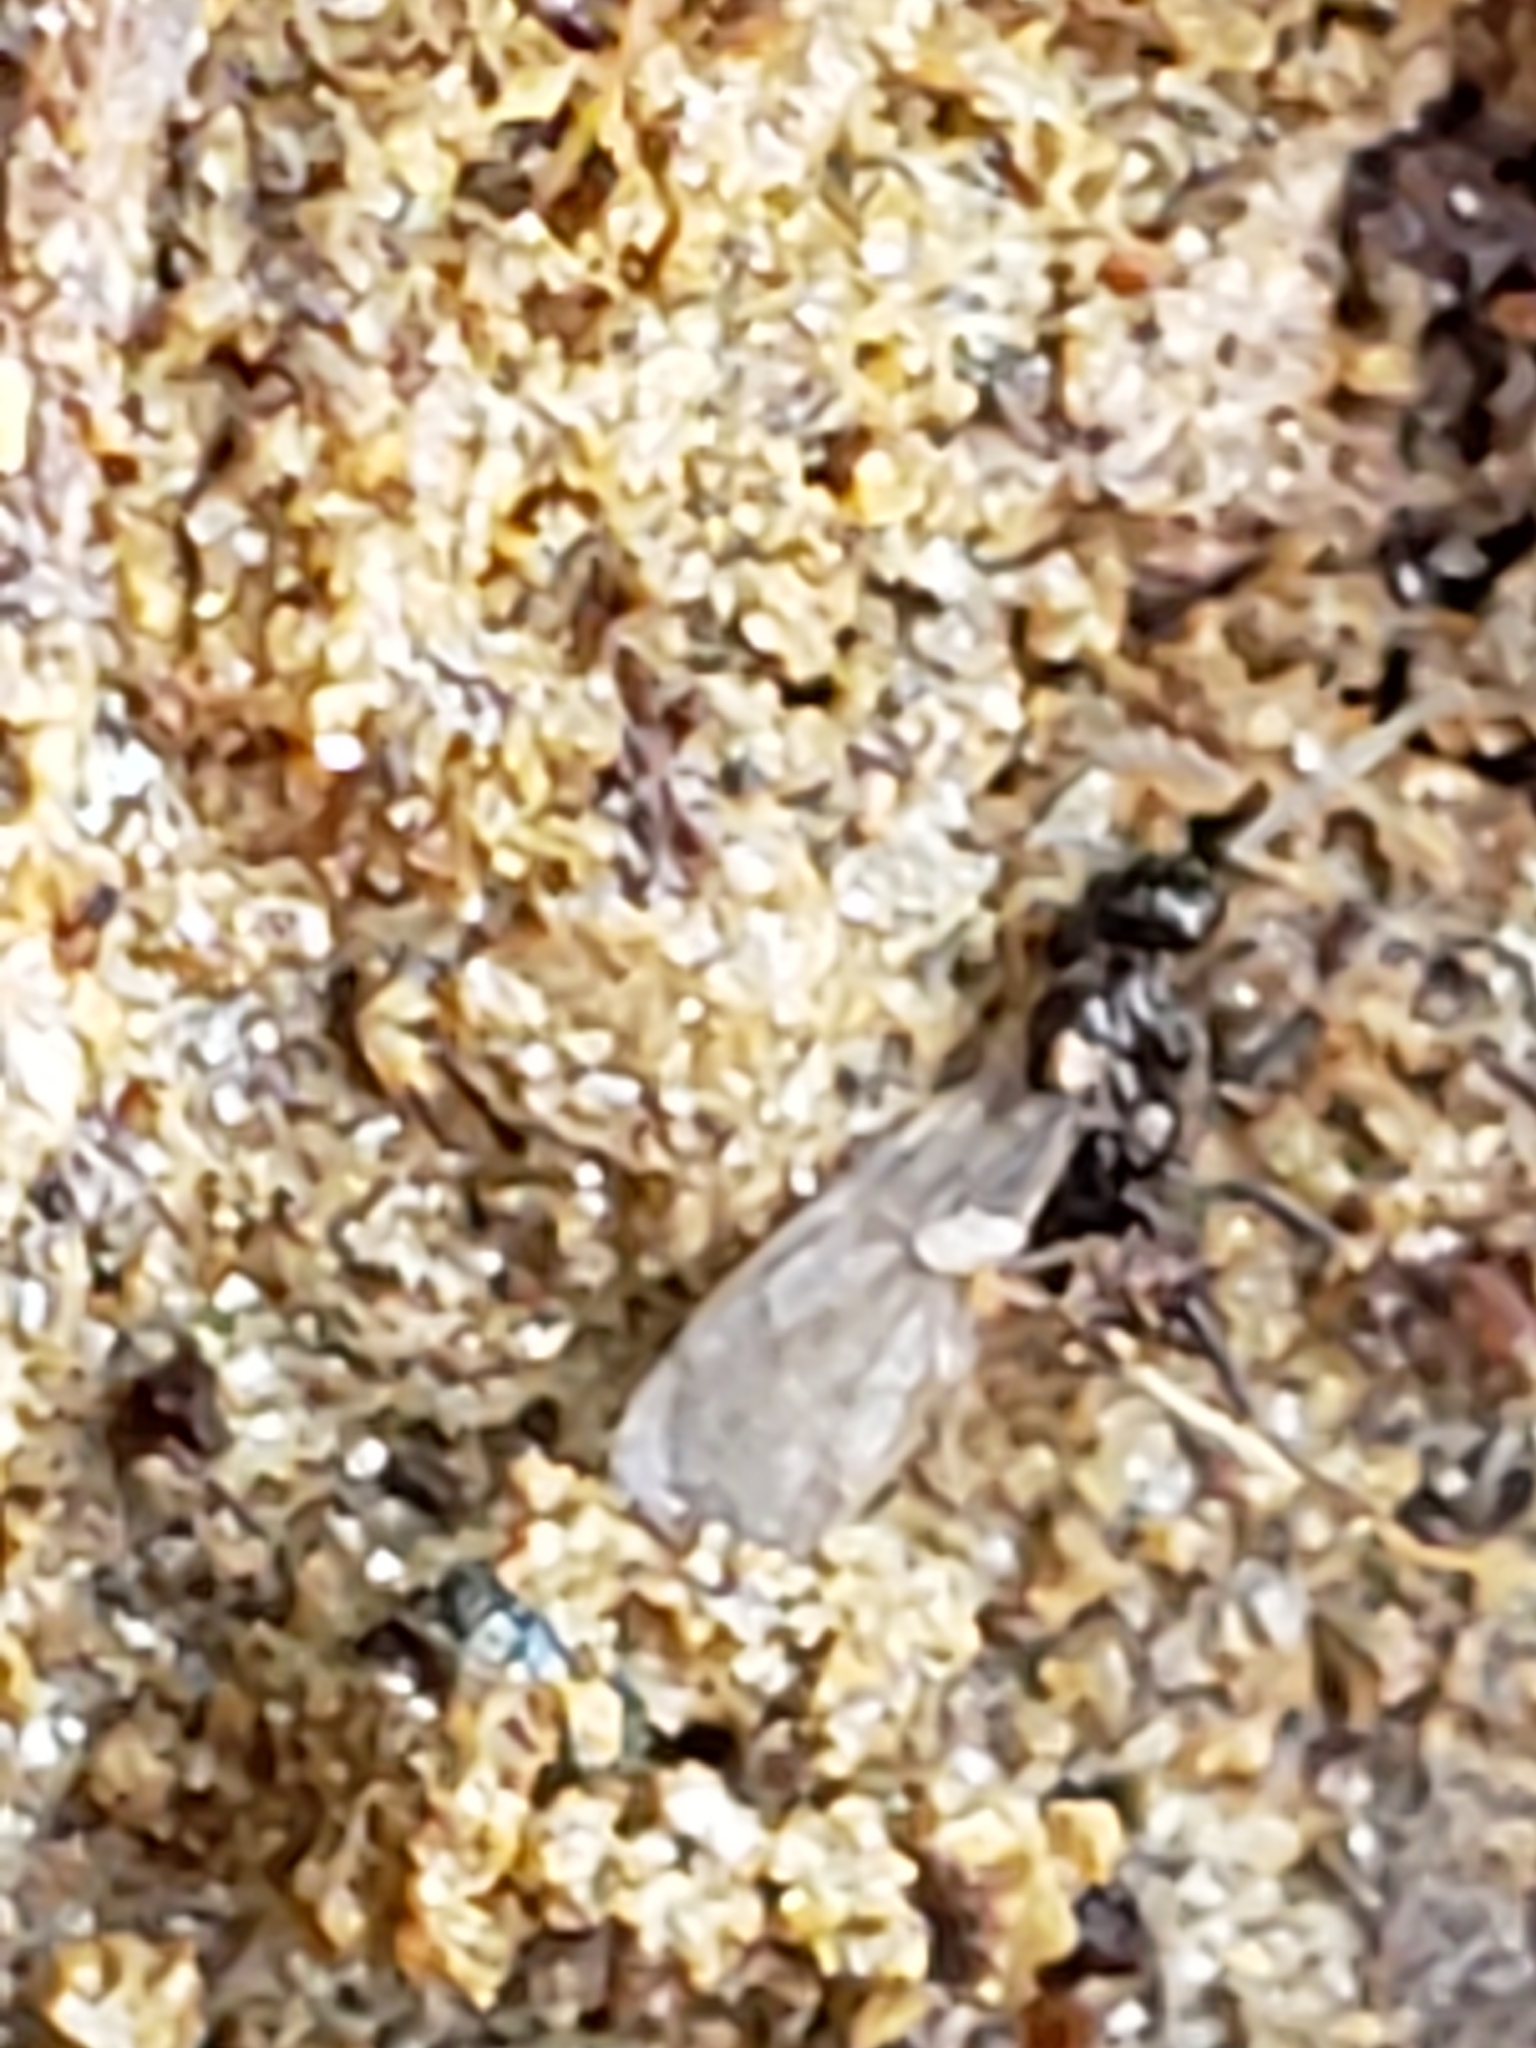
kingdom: Animalia
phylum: Arthropoda
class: Insecta
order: Hymenoptera
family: Formicidae
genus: Prenolepis
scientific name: Prenolepis imparis
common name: Small honey ant
